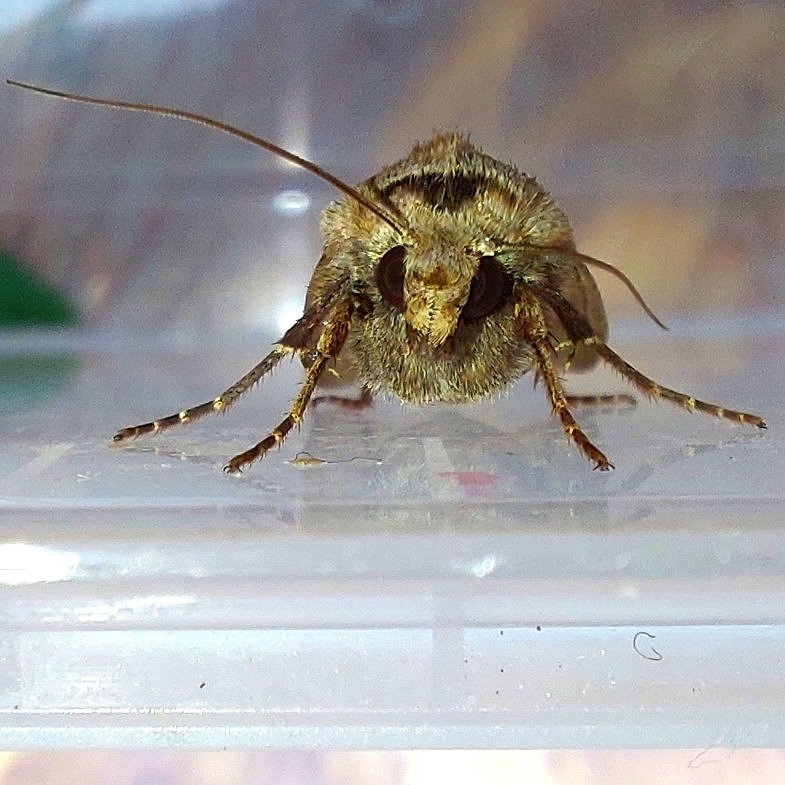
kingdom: Animalia
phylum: Arthropoda
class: Insecta
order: Lepidoptera
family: Noctuidae
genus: Agrotis
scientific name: Agrotis exclamationis
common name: Heart and dart
